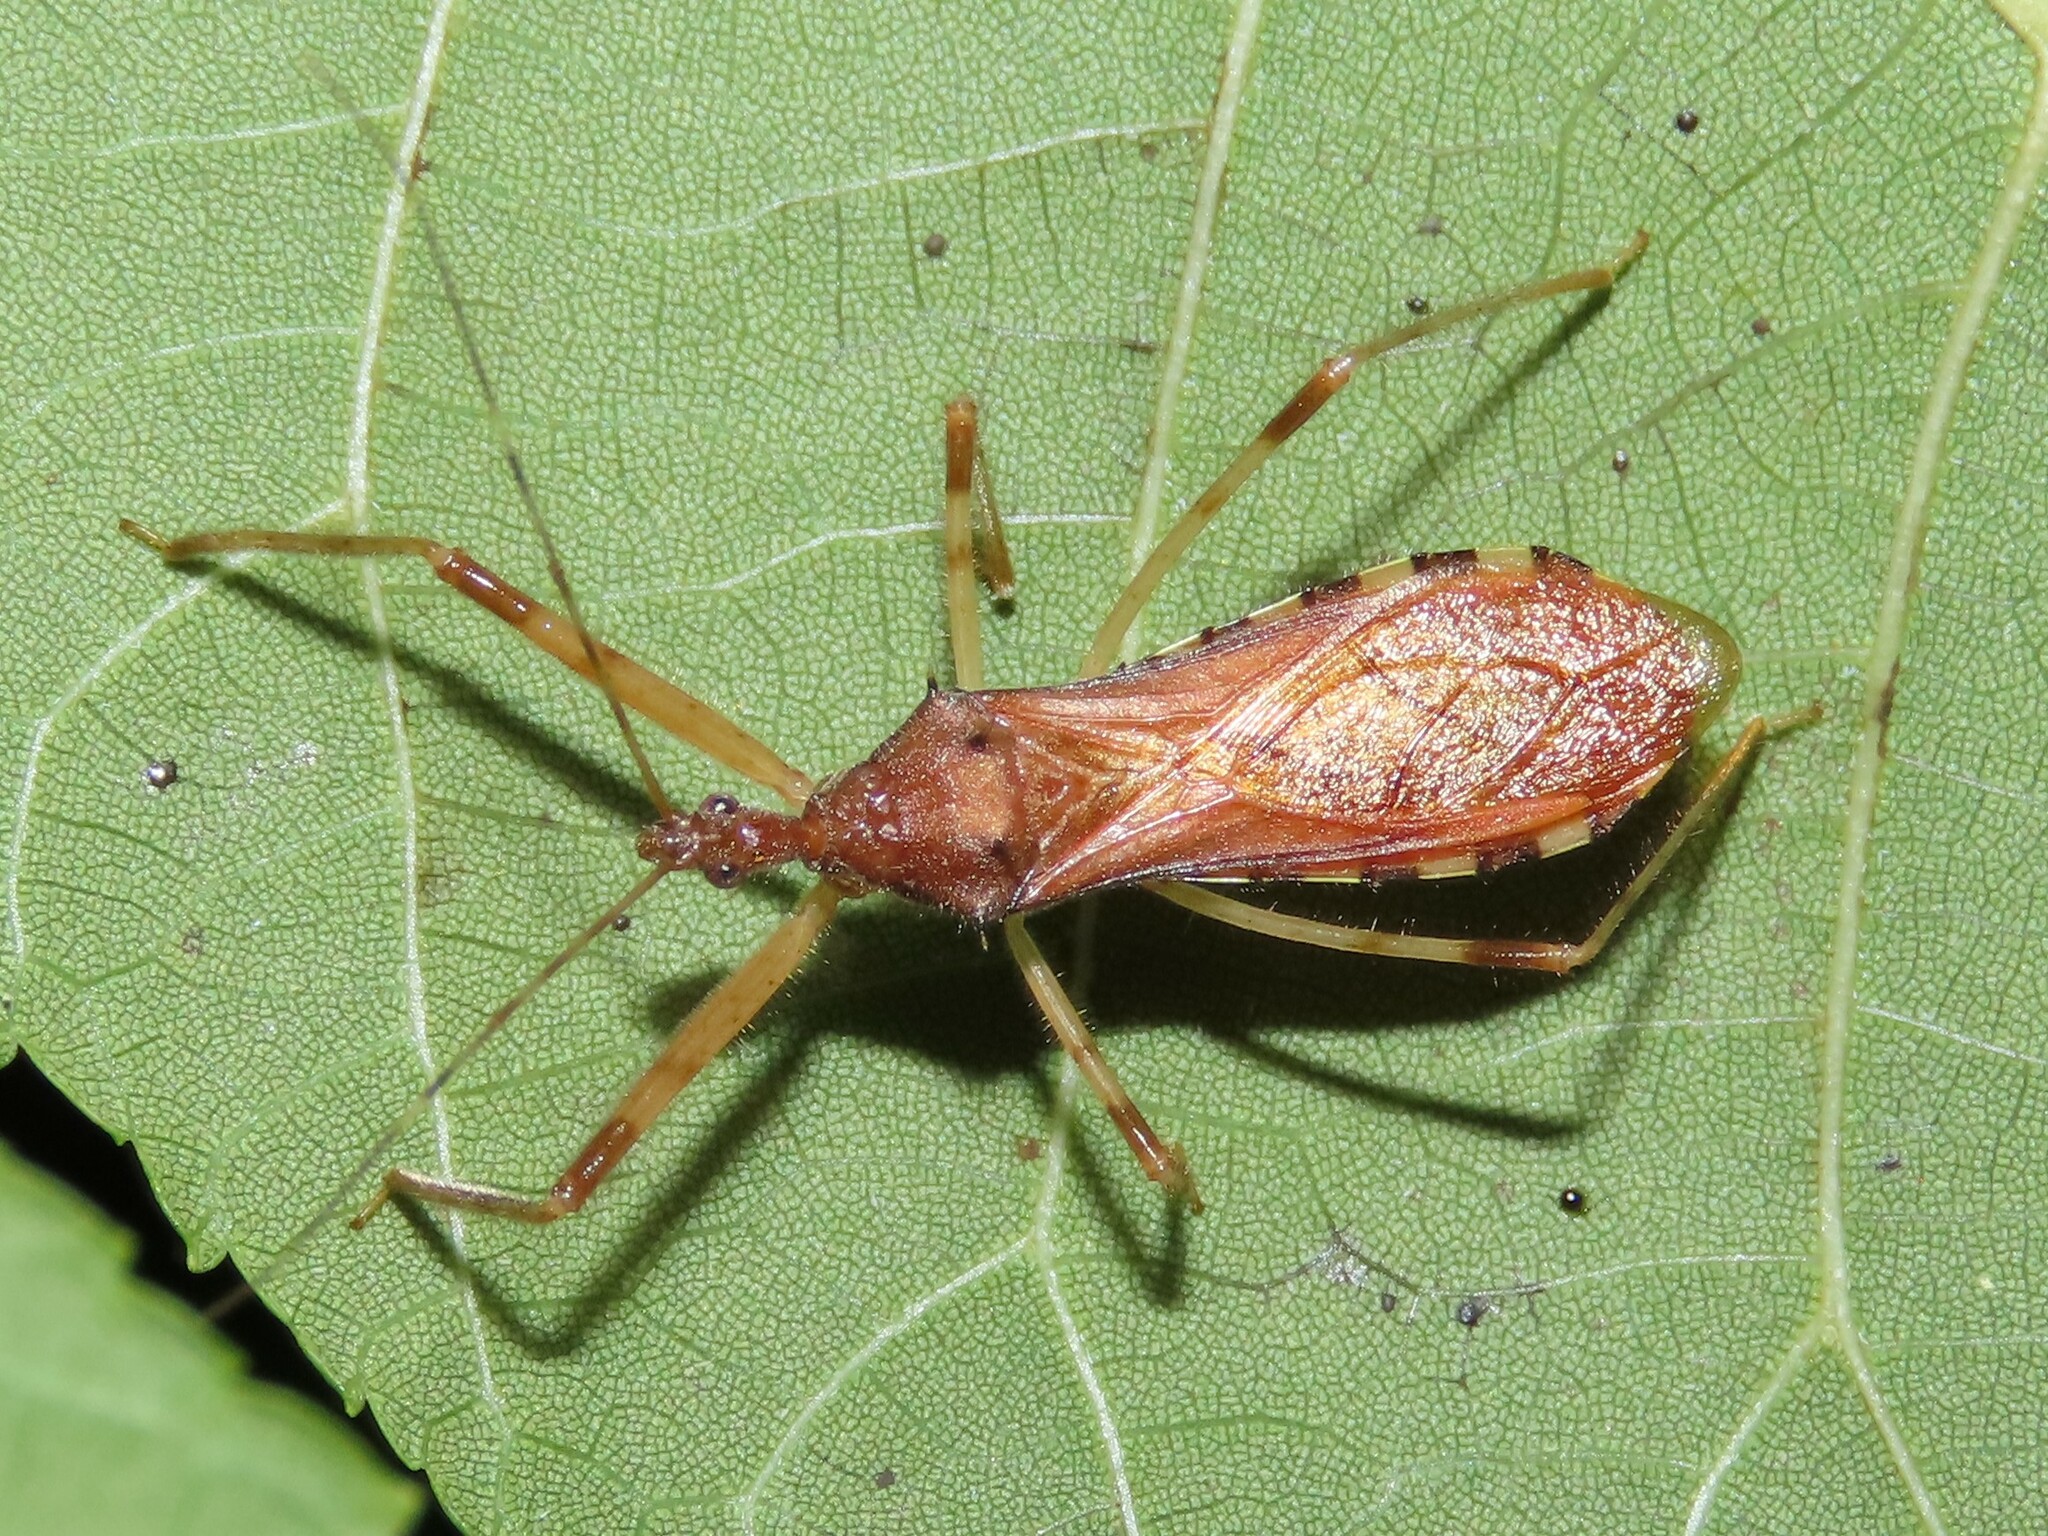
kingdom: Animalia
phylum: Arthropoda
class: Insecta
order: Hemiptera
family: Reduviidae
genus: Rocconota
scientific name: Rocconota annulicornis
